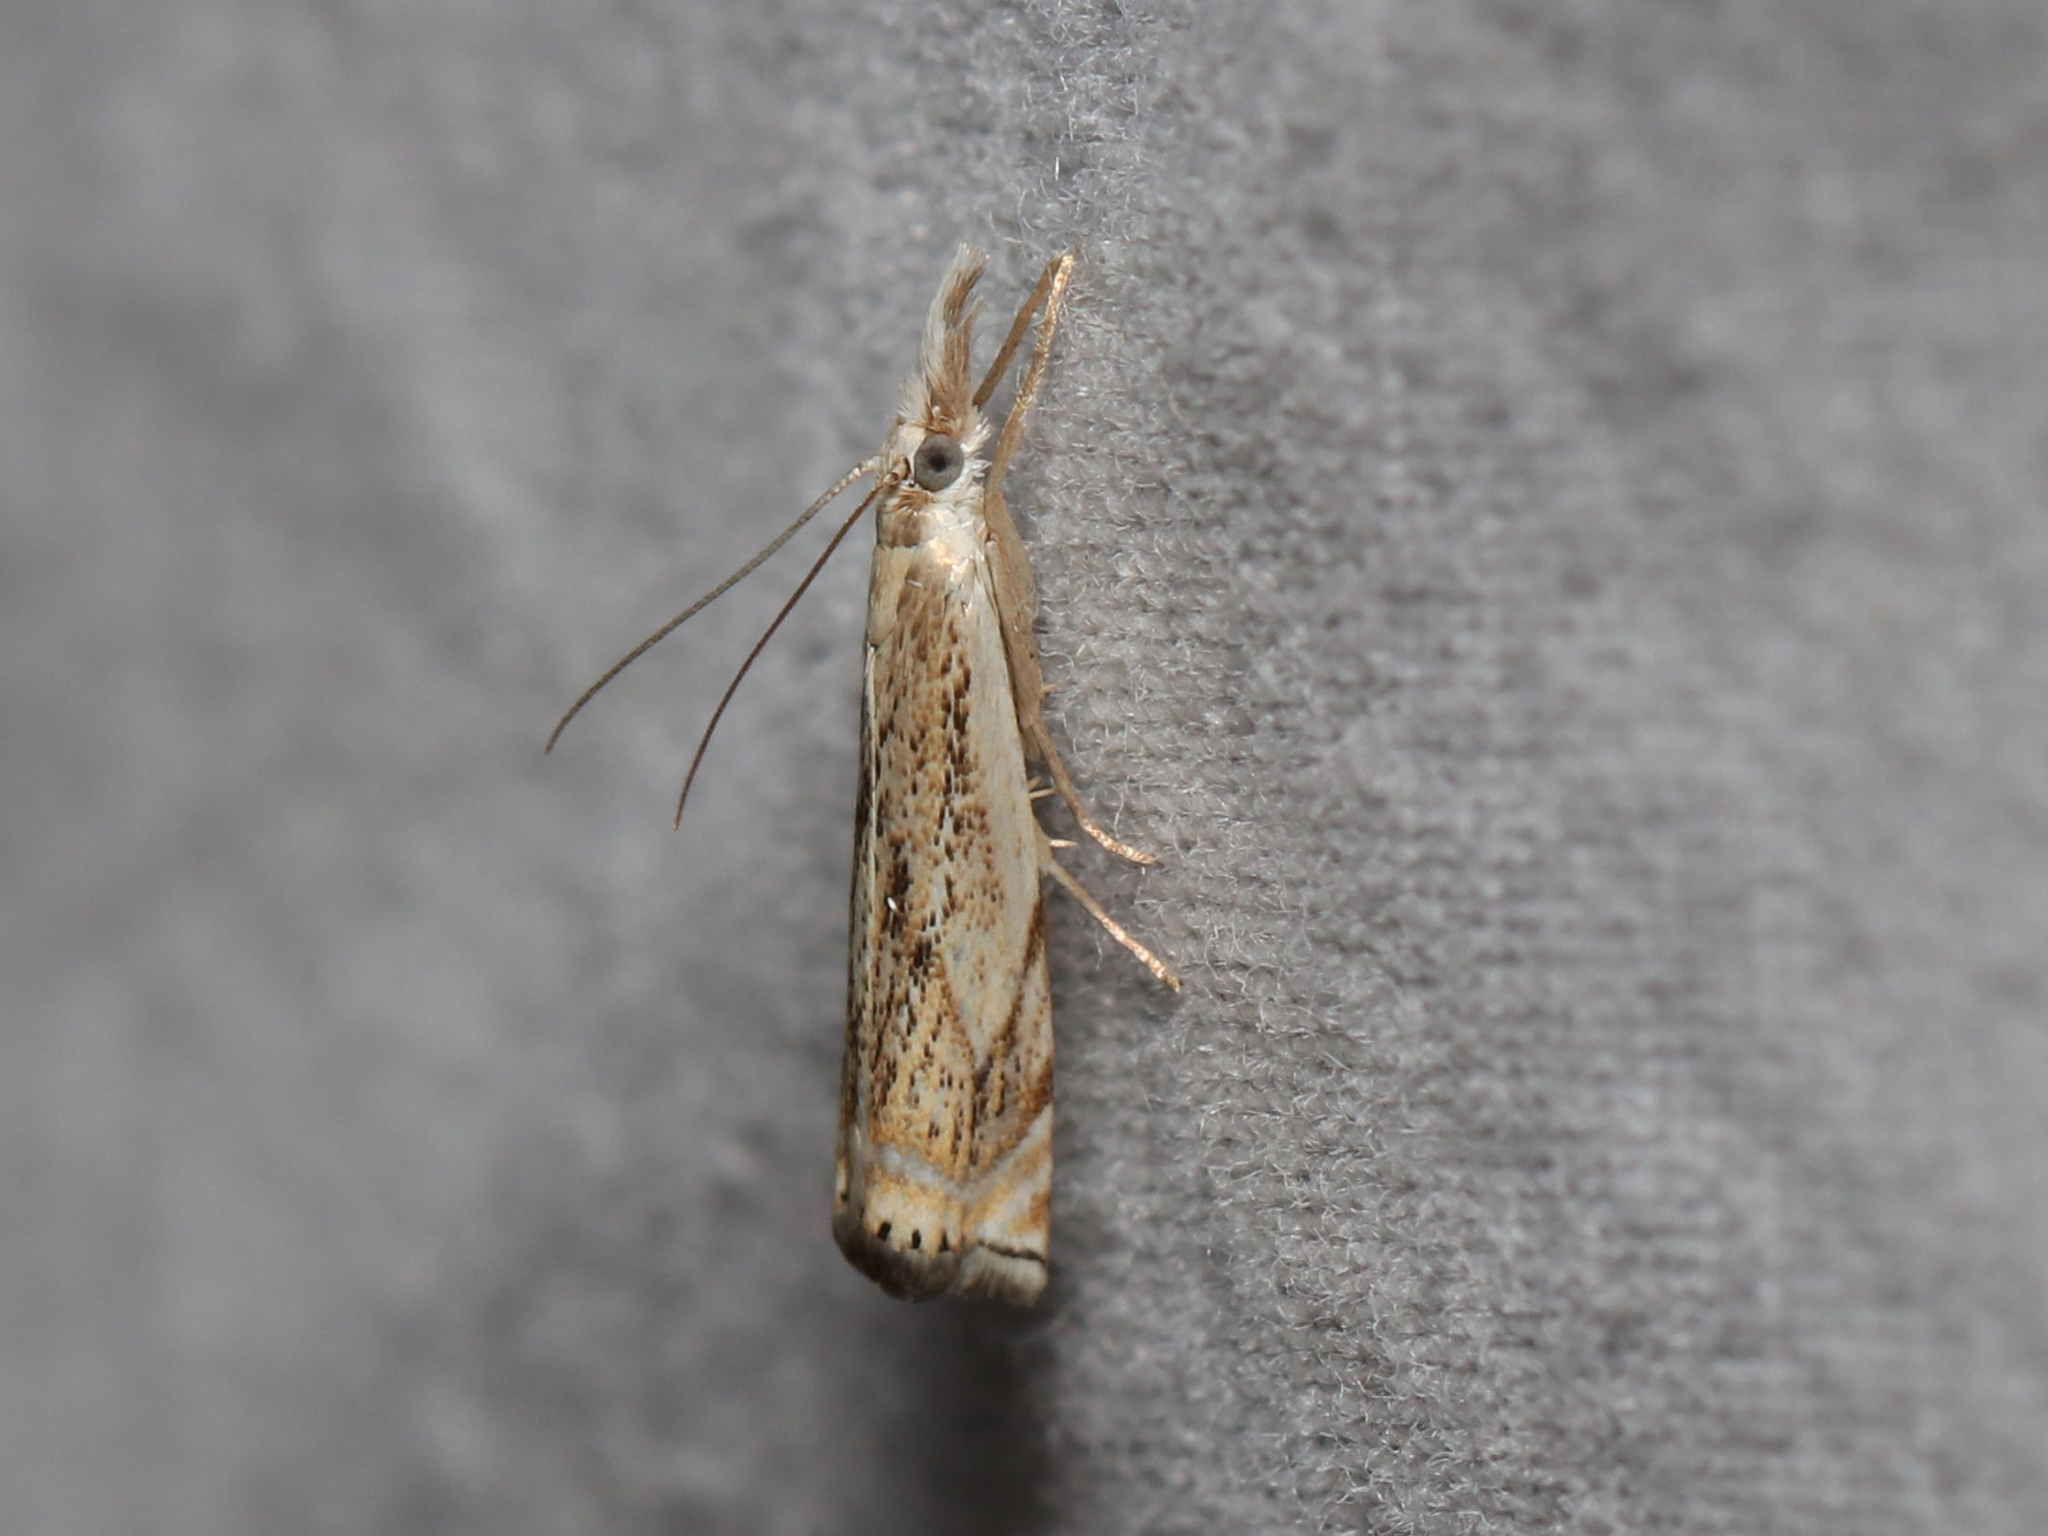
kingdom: Animalia
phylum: Arthropoda
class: Insecta
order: Lepidoptera
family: Crambidae
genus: Crambus
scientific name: Crambus albellus
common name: Small white grass-veneer
